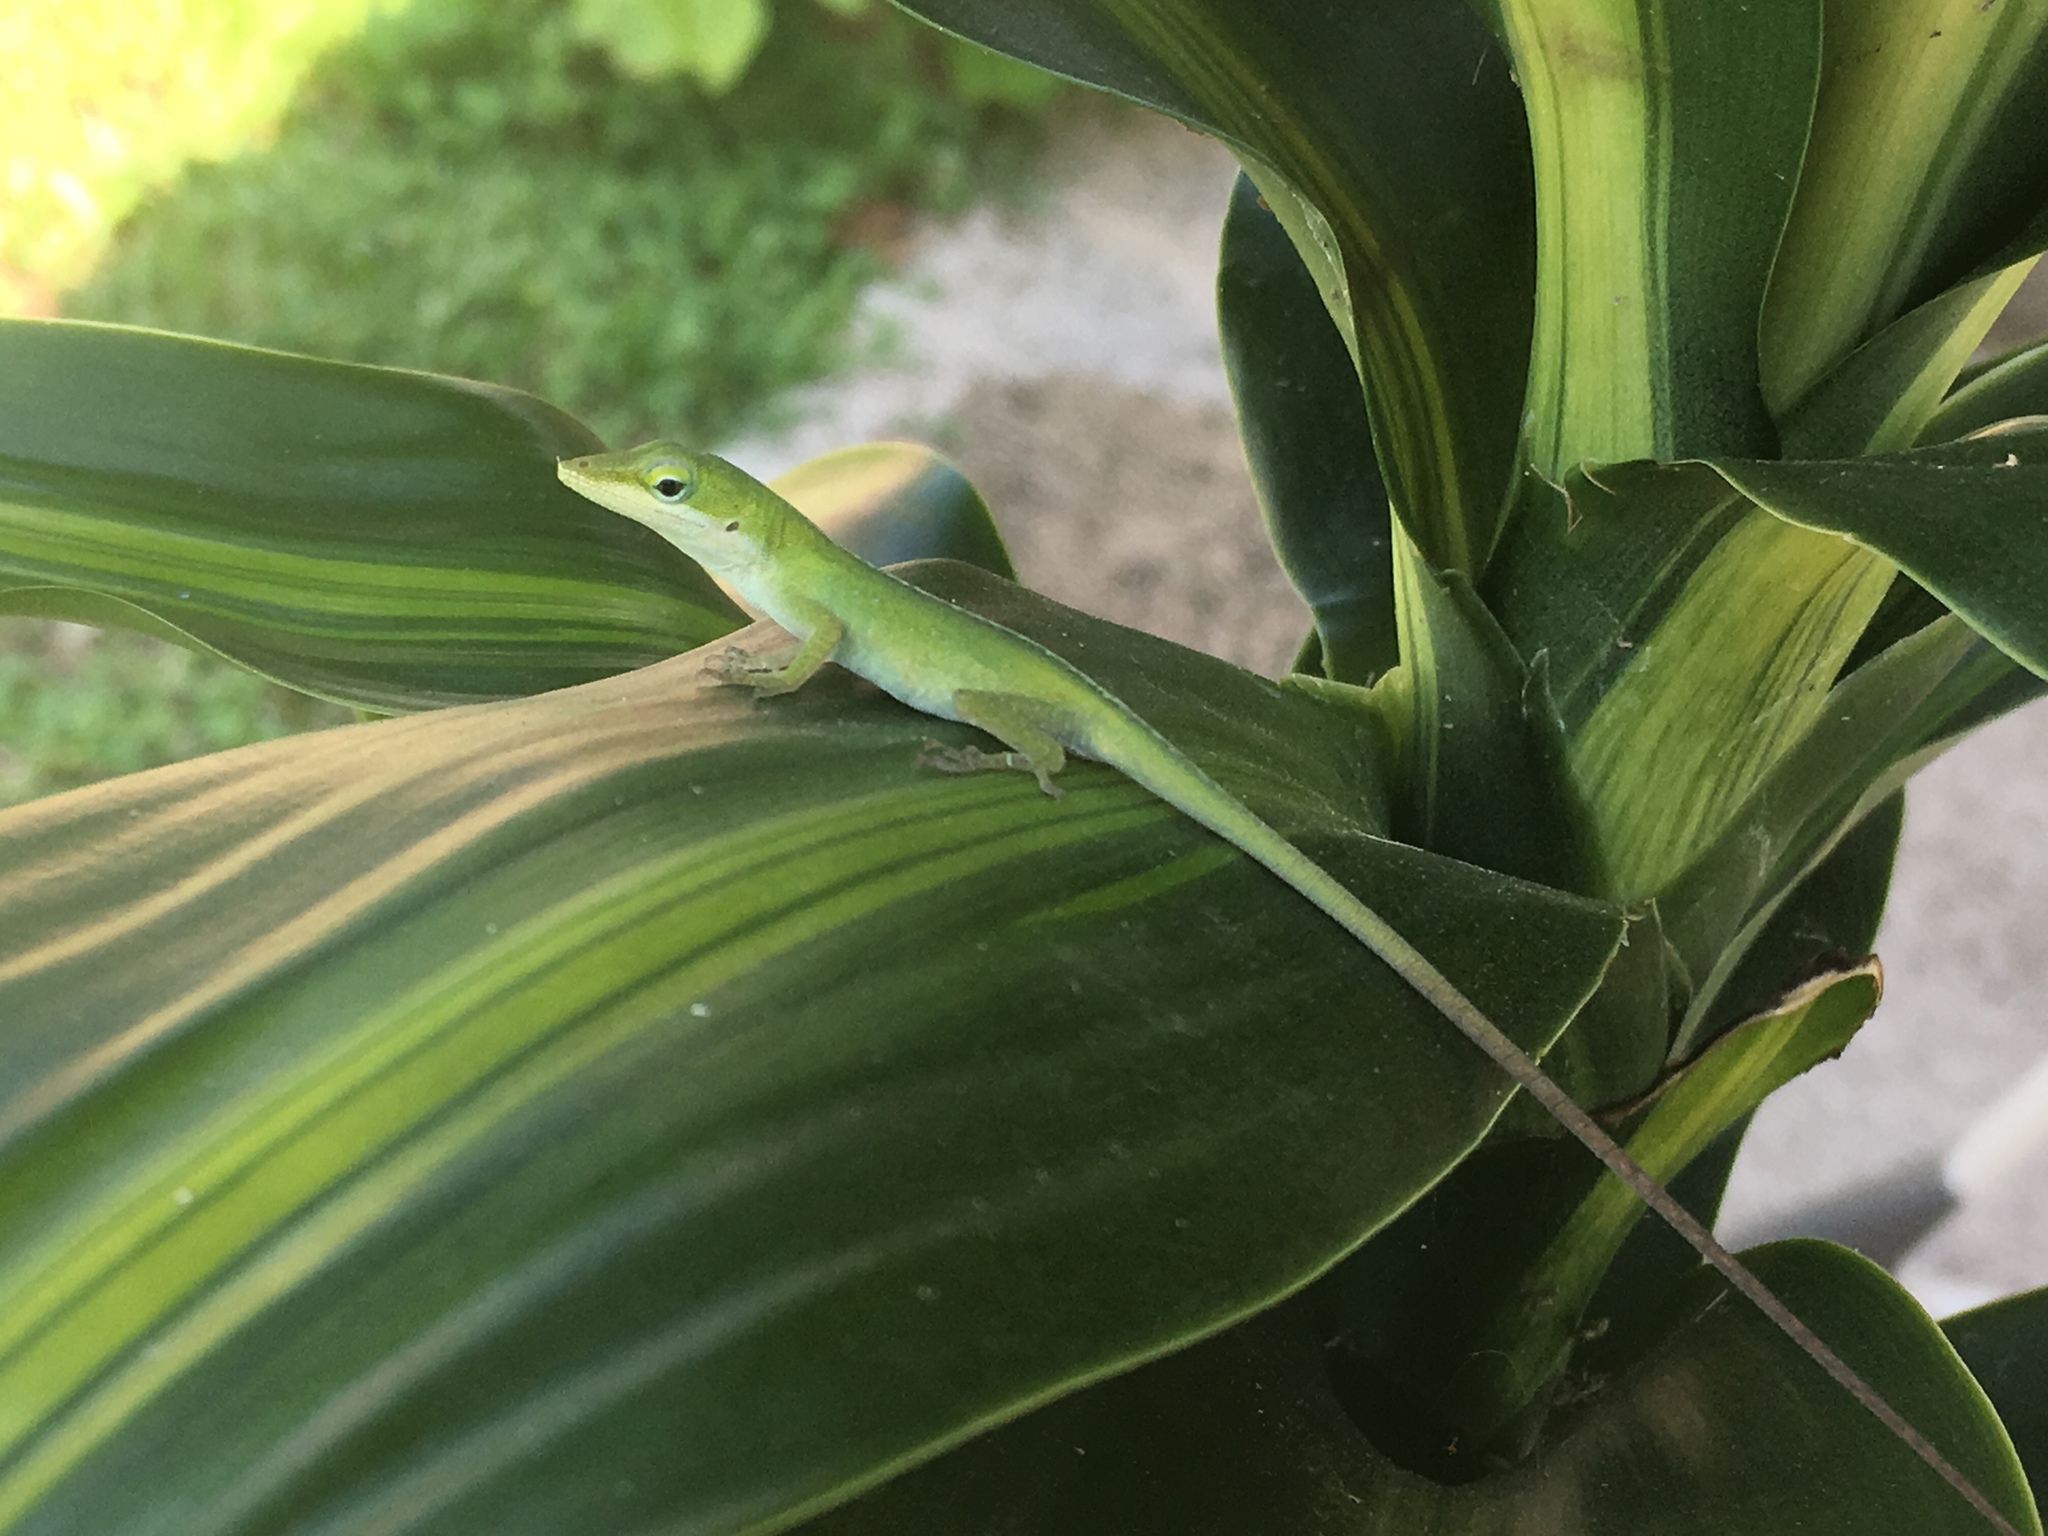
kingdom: Animalia
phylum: Chordata
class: Squamata
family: Dactyloidae
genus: Anolis
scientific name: Anolis carolinensis
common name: Green anole
